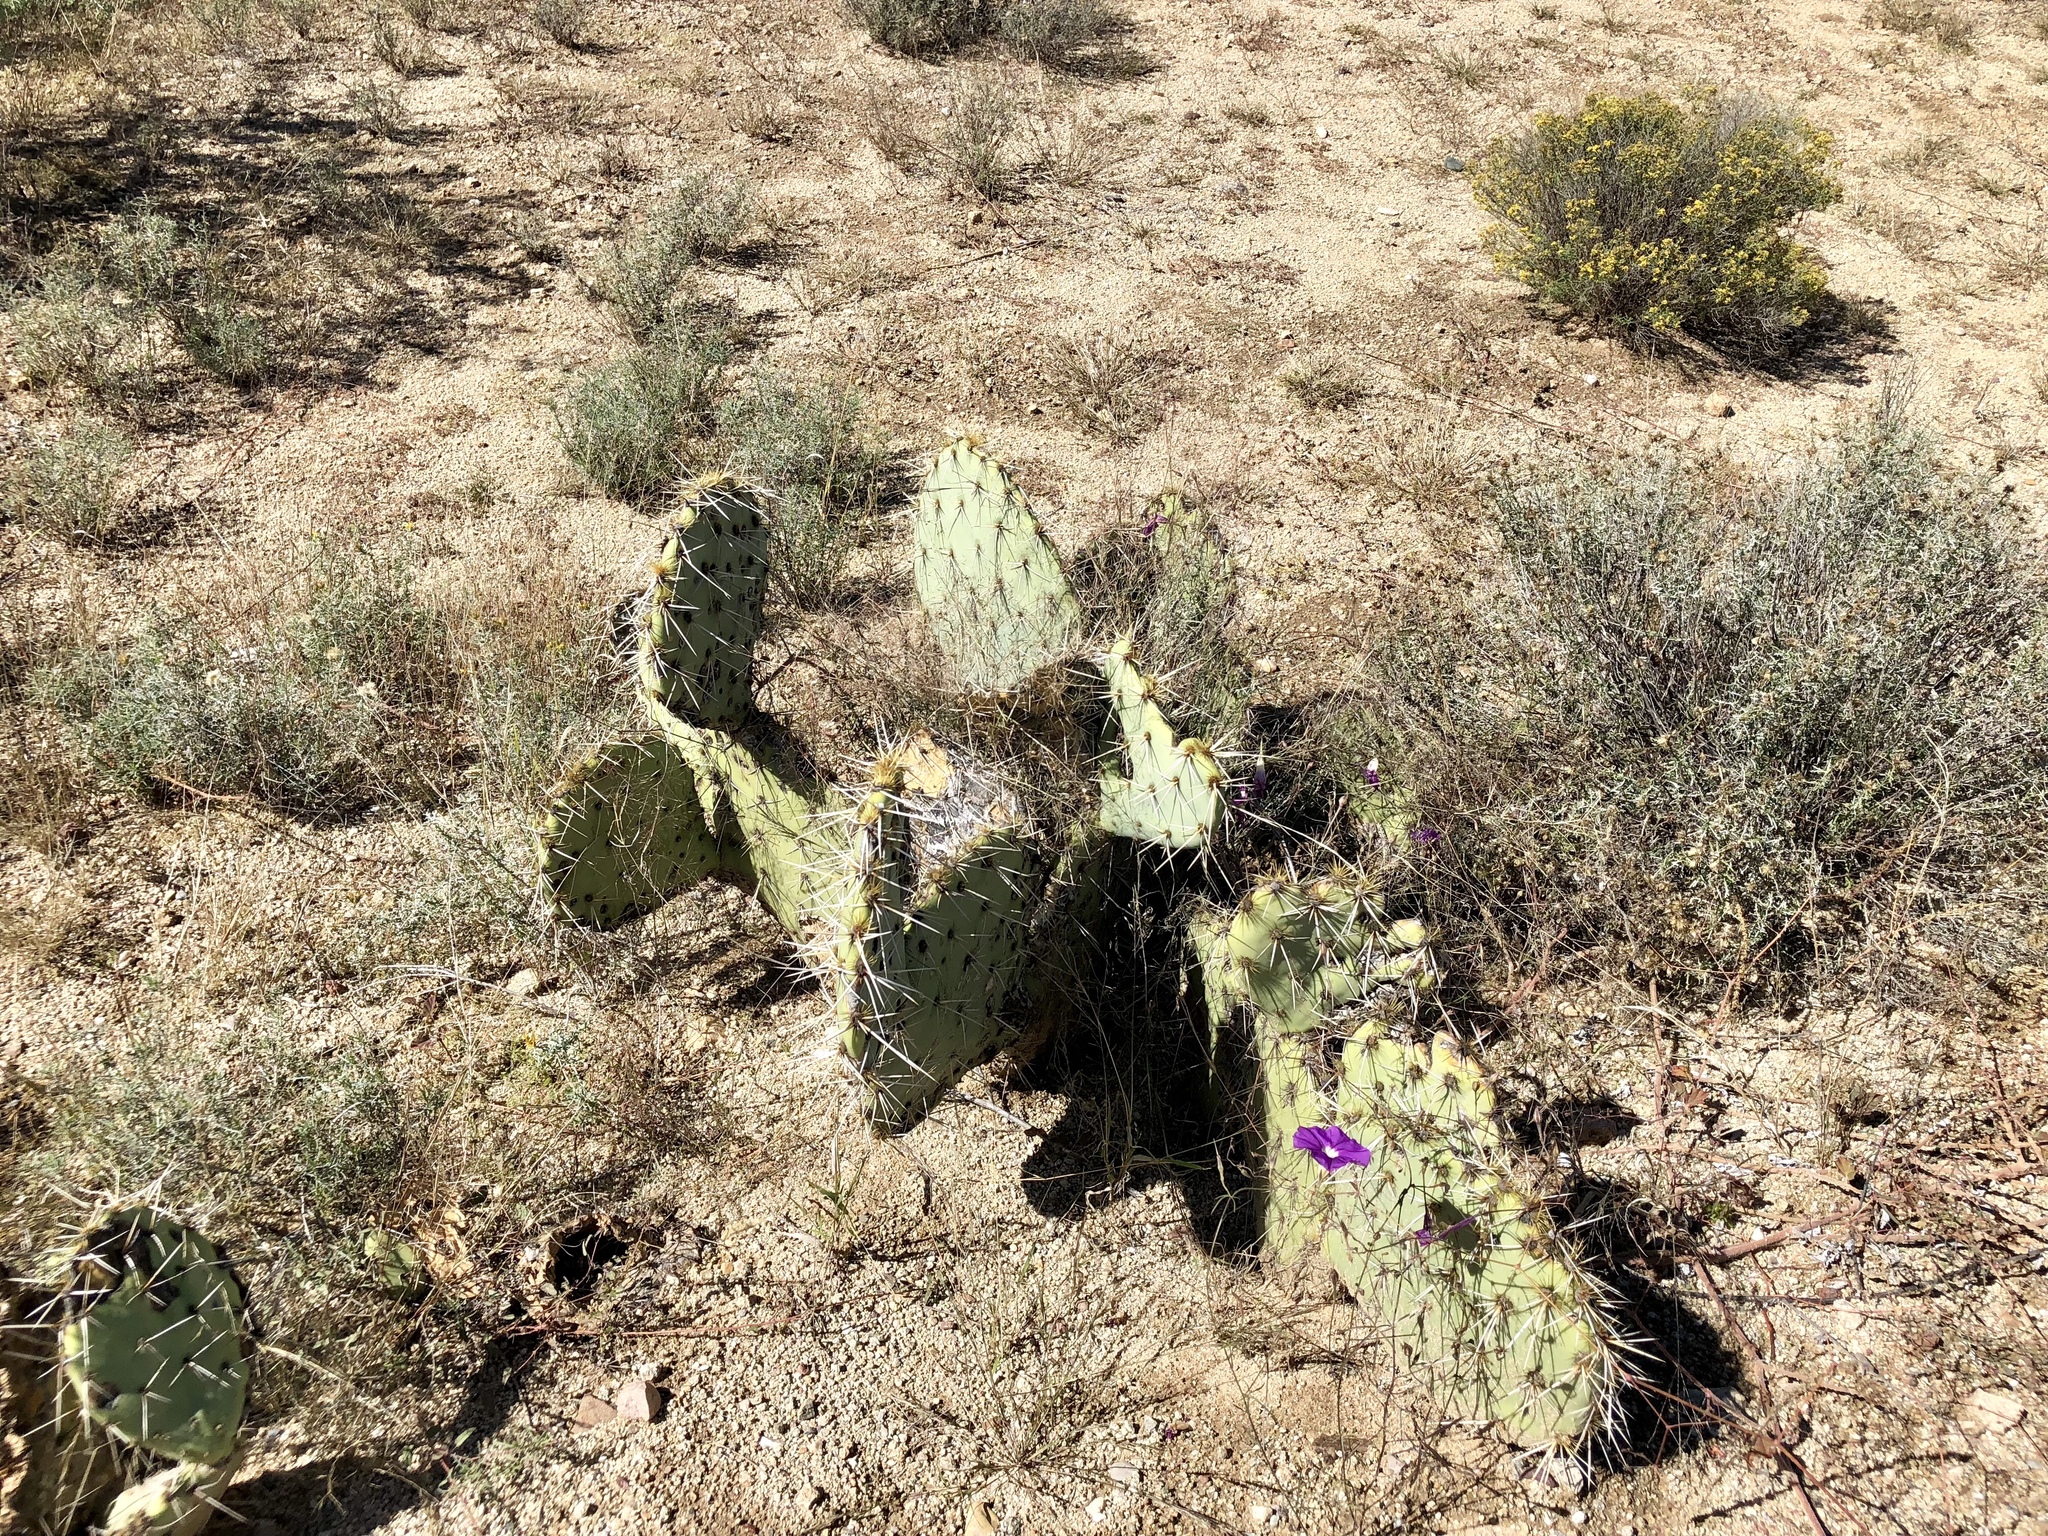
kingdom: Plantae
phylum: Tracheophyta
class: Magnoliopsida
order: Caryophyllales
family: Cactaceae
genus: Opuntia
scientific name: Opuntia engelmannii
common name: Cactus-apple
